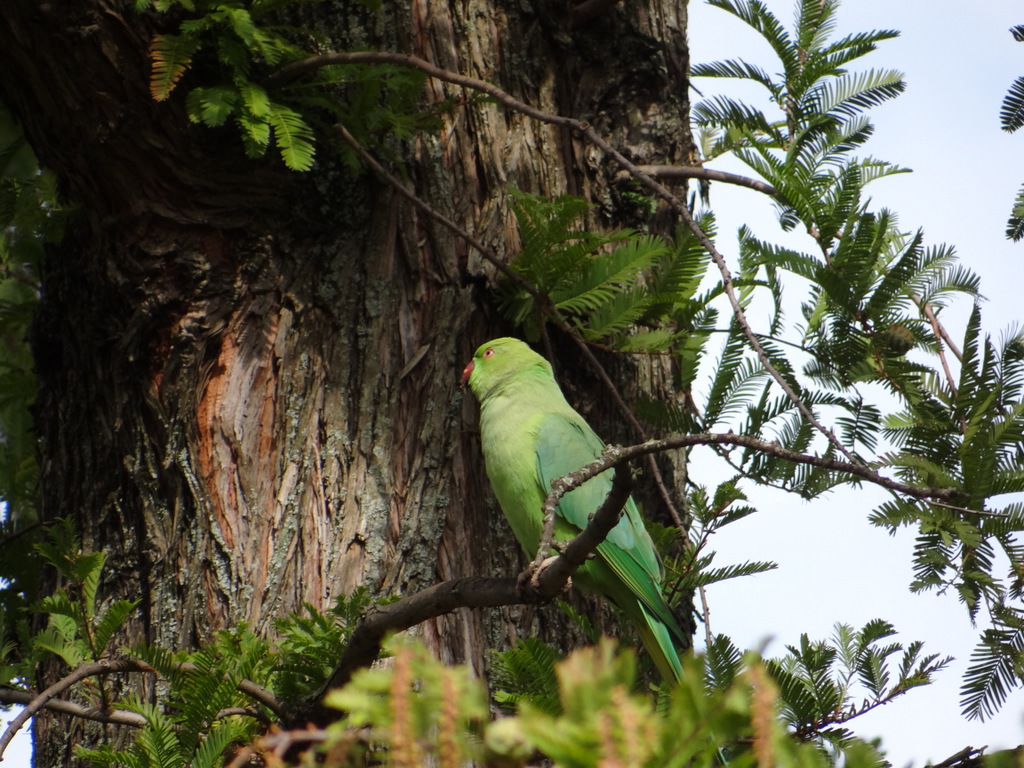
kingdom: Animalia
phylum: Chordata
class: Aves
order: Psittaciformes
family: Psittacidae
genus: Psittacula
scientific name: Psittacula krameri
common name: Rose-ringed parakeet
